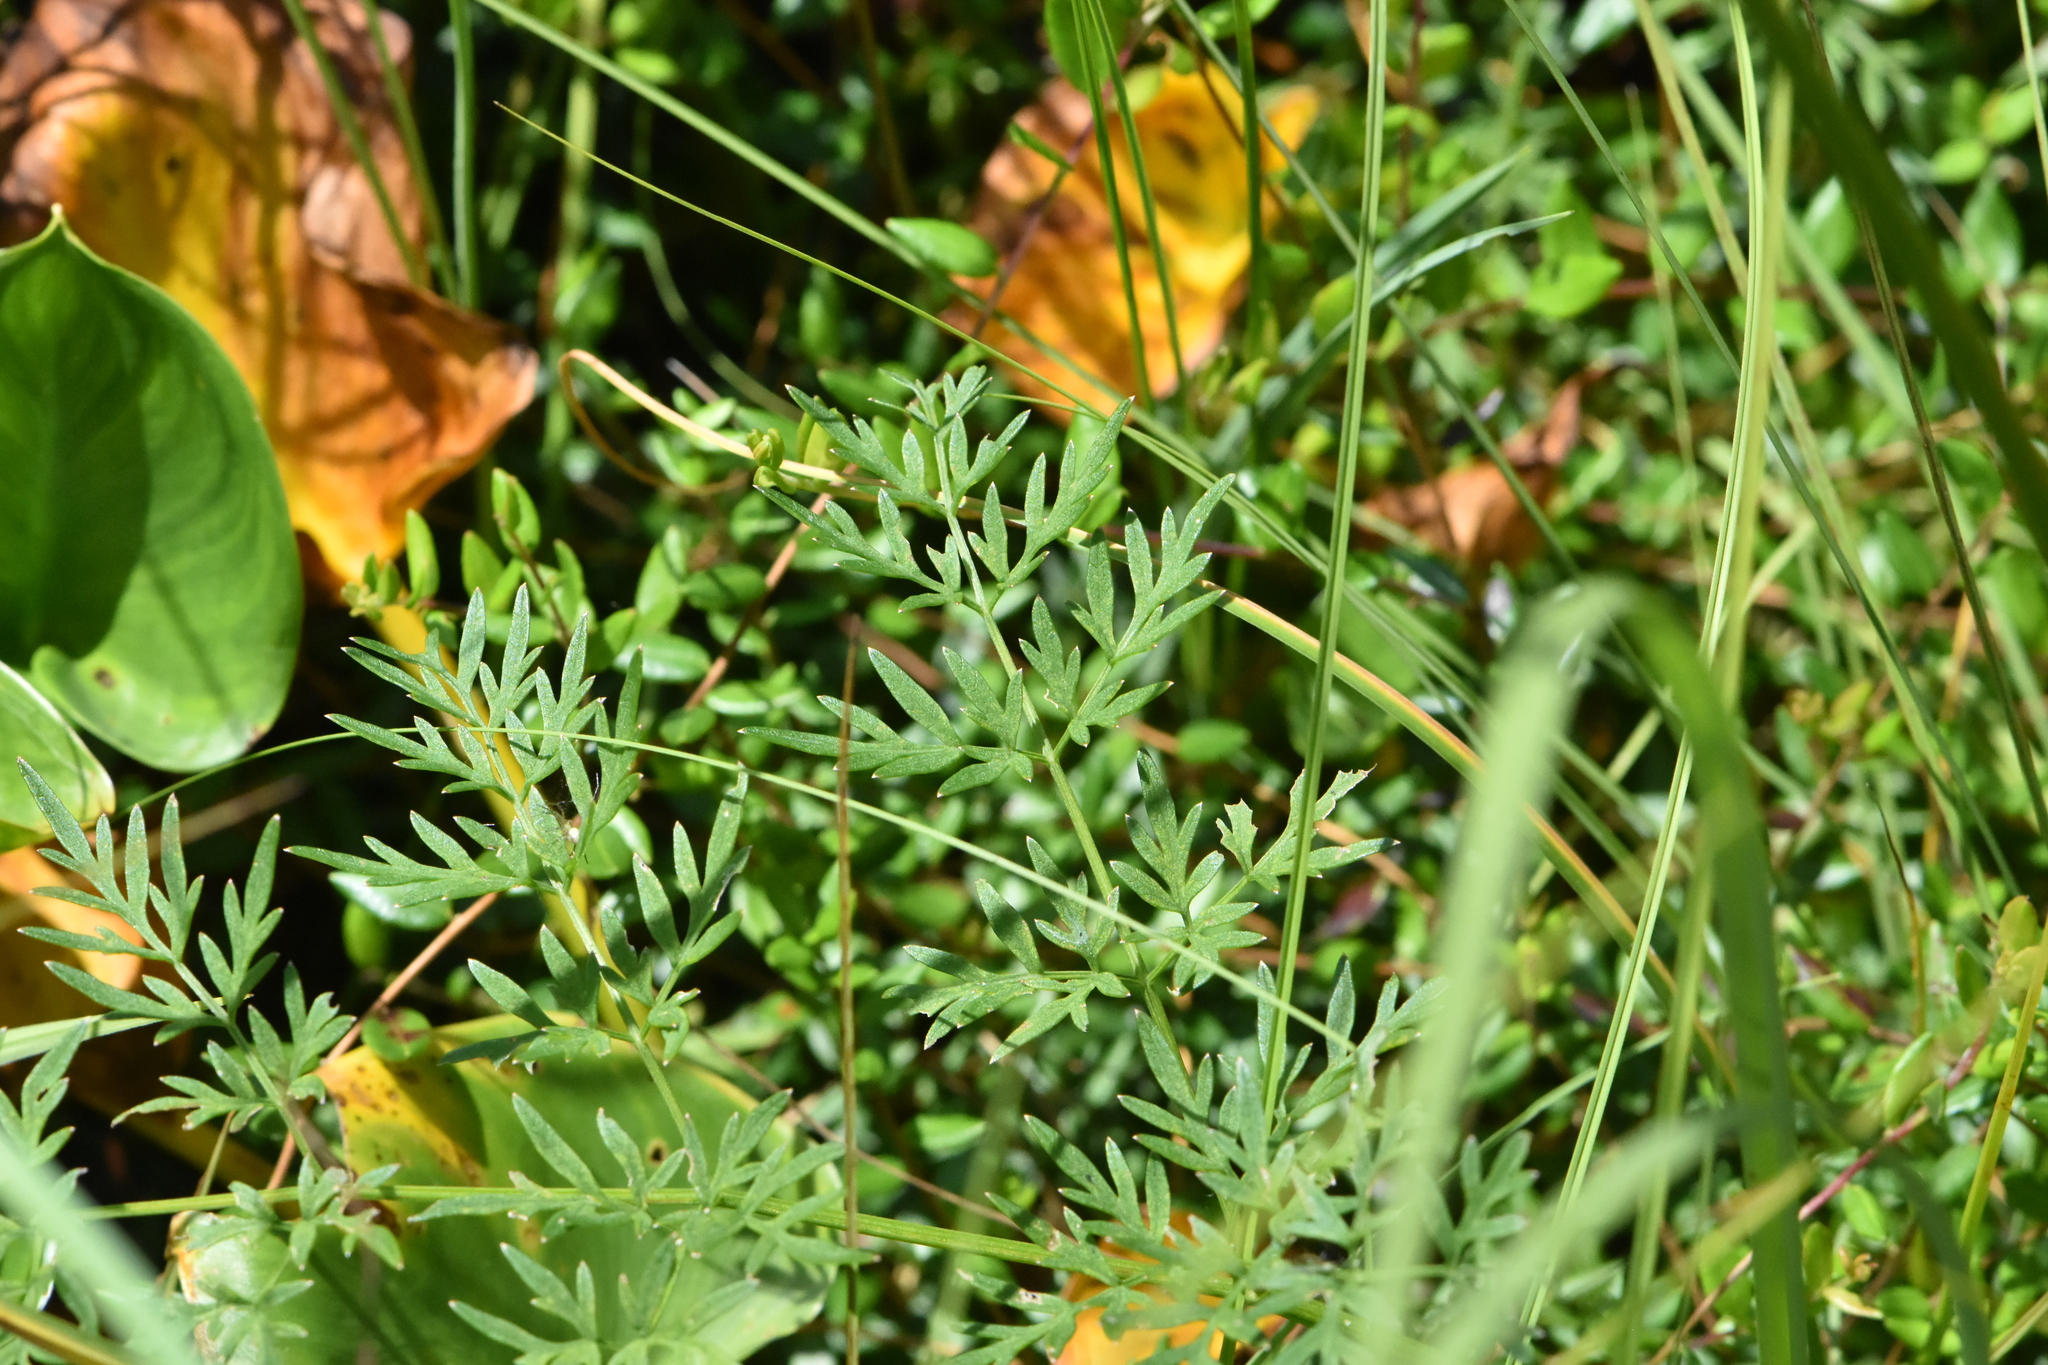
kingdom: Plantae
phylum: Tracheophyta
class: Magnoliopsida
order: Apiales
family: Apiaceae
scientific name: Apiaceae
